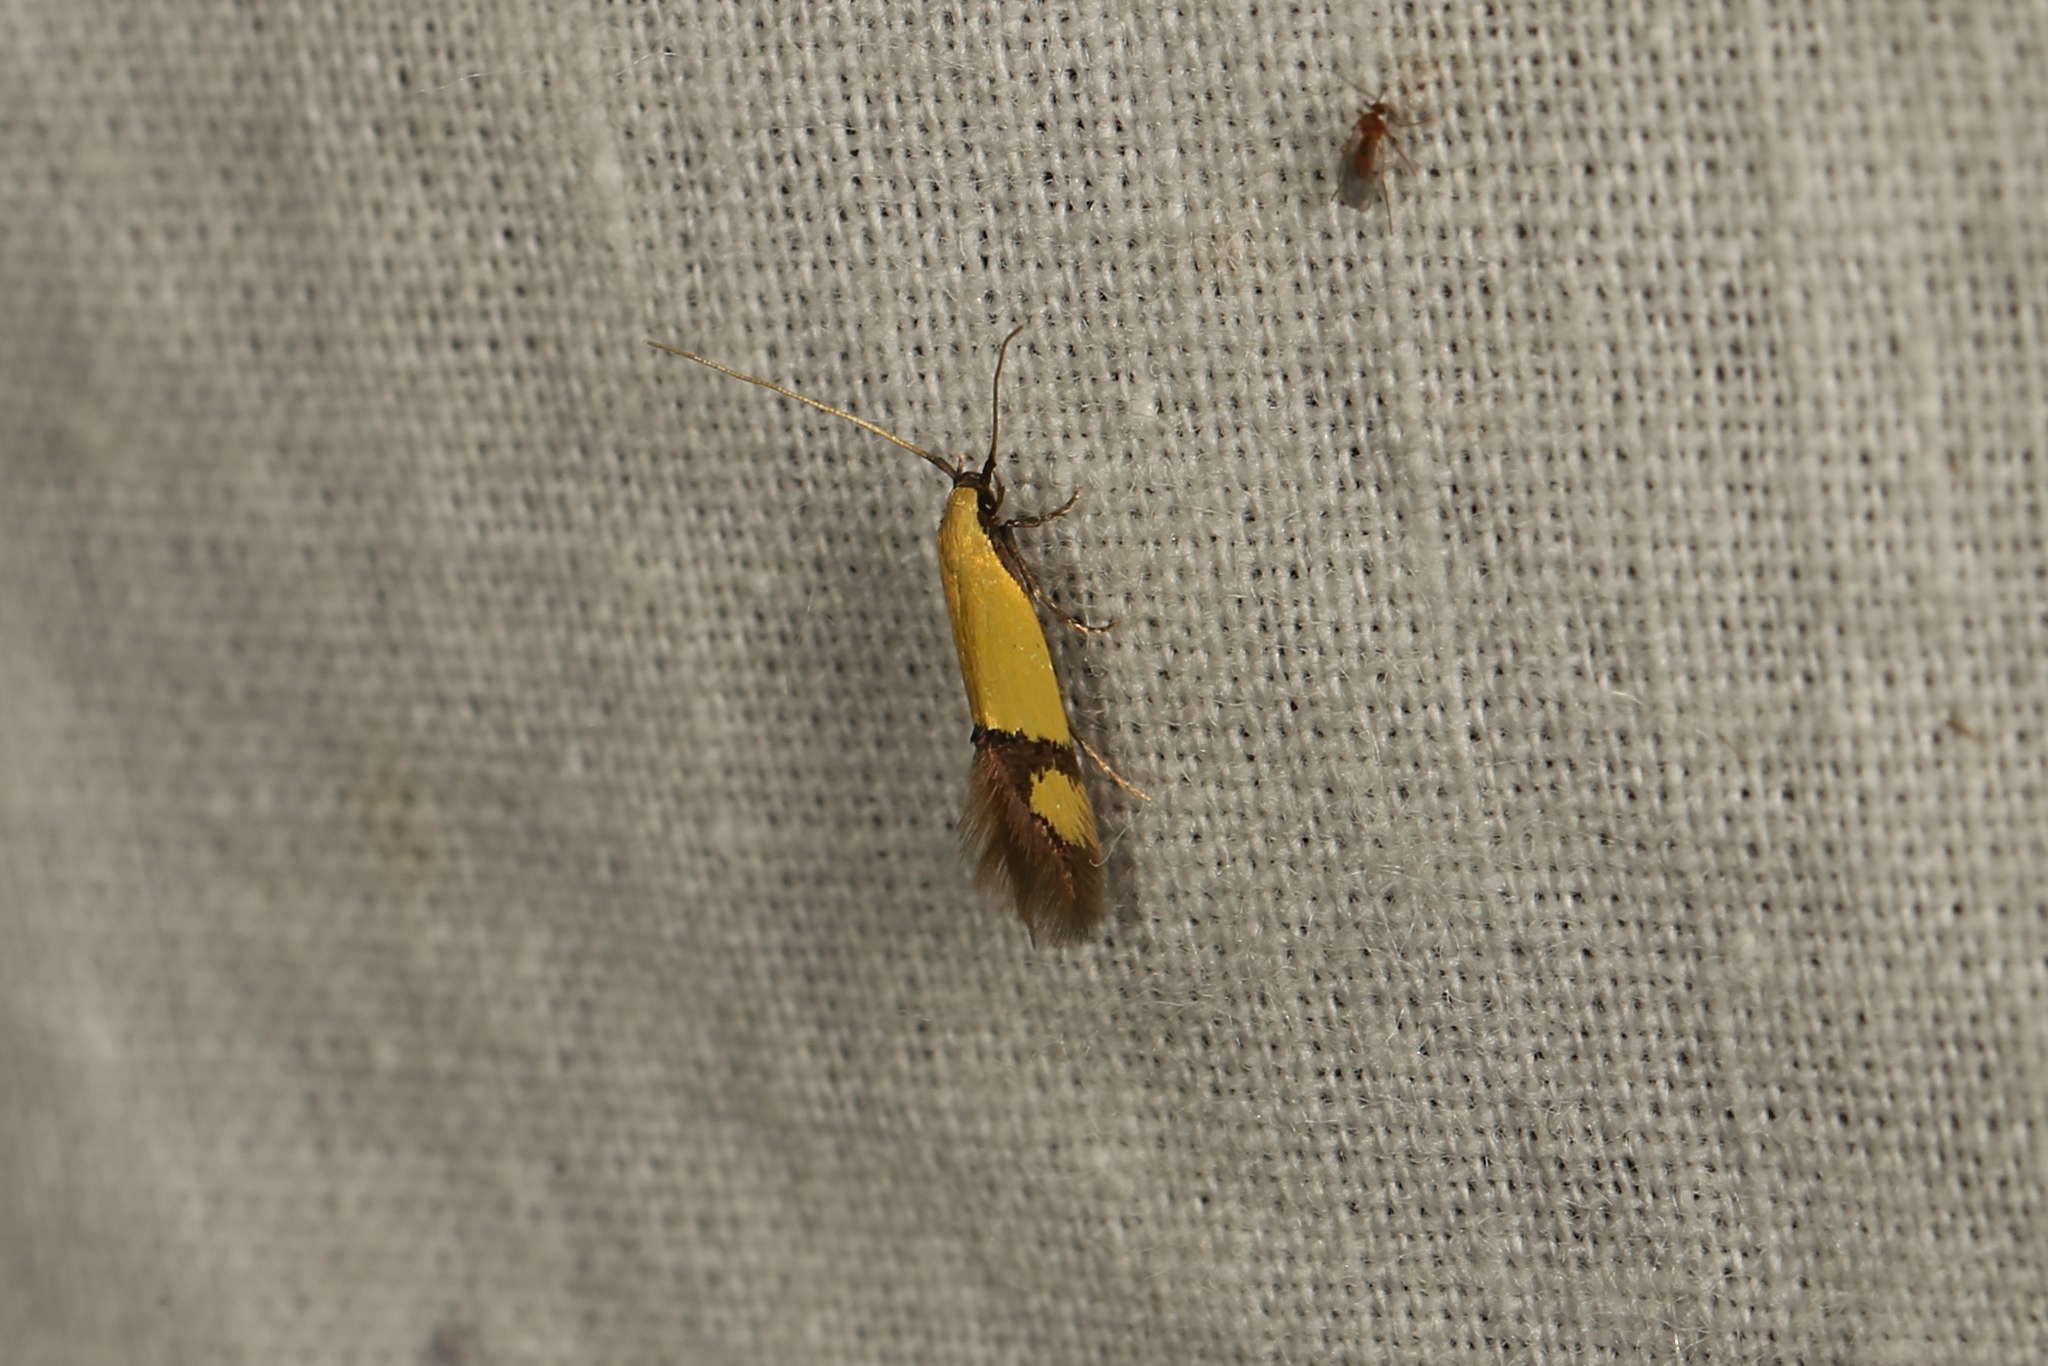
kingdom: Animalia
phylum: Arthropoda
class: Insecta
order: Lepidoptera
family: Tineidae
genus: Opogona
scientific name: Opogona stereodyta
